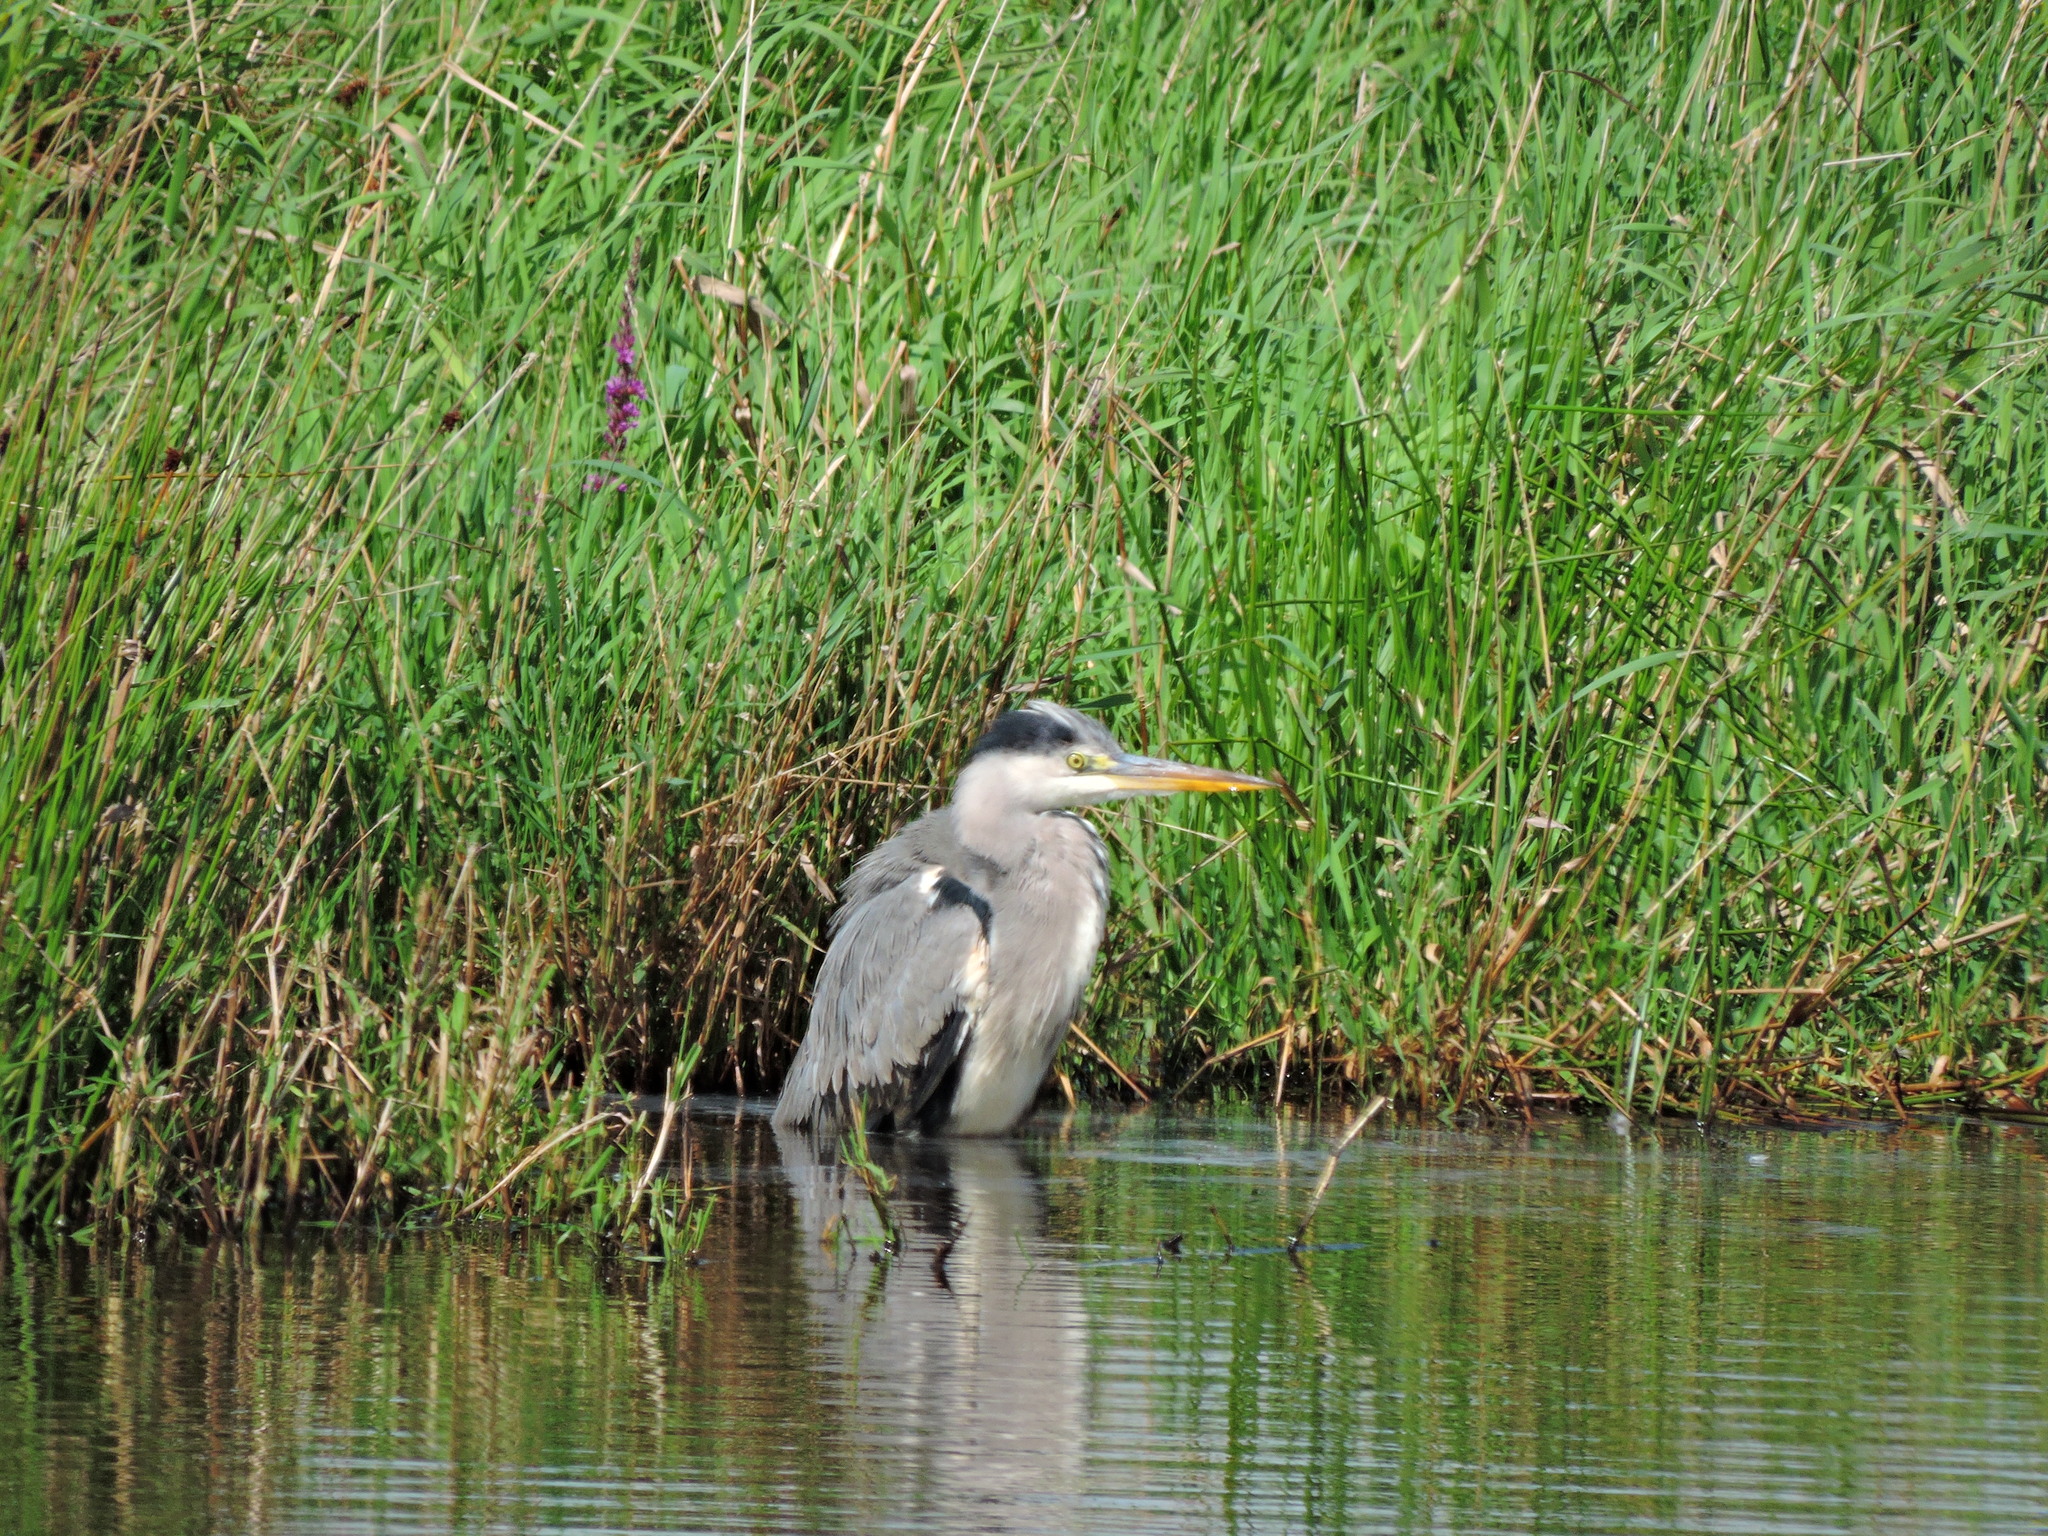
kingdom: Animalia
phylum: Chordata
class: Aves
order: Pelecaniformes
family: Ardeidae
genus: Ardea
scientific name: Ardea cinerea
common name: Grey heron
